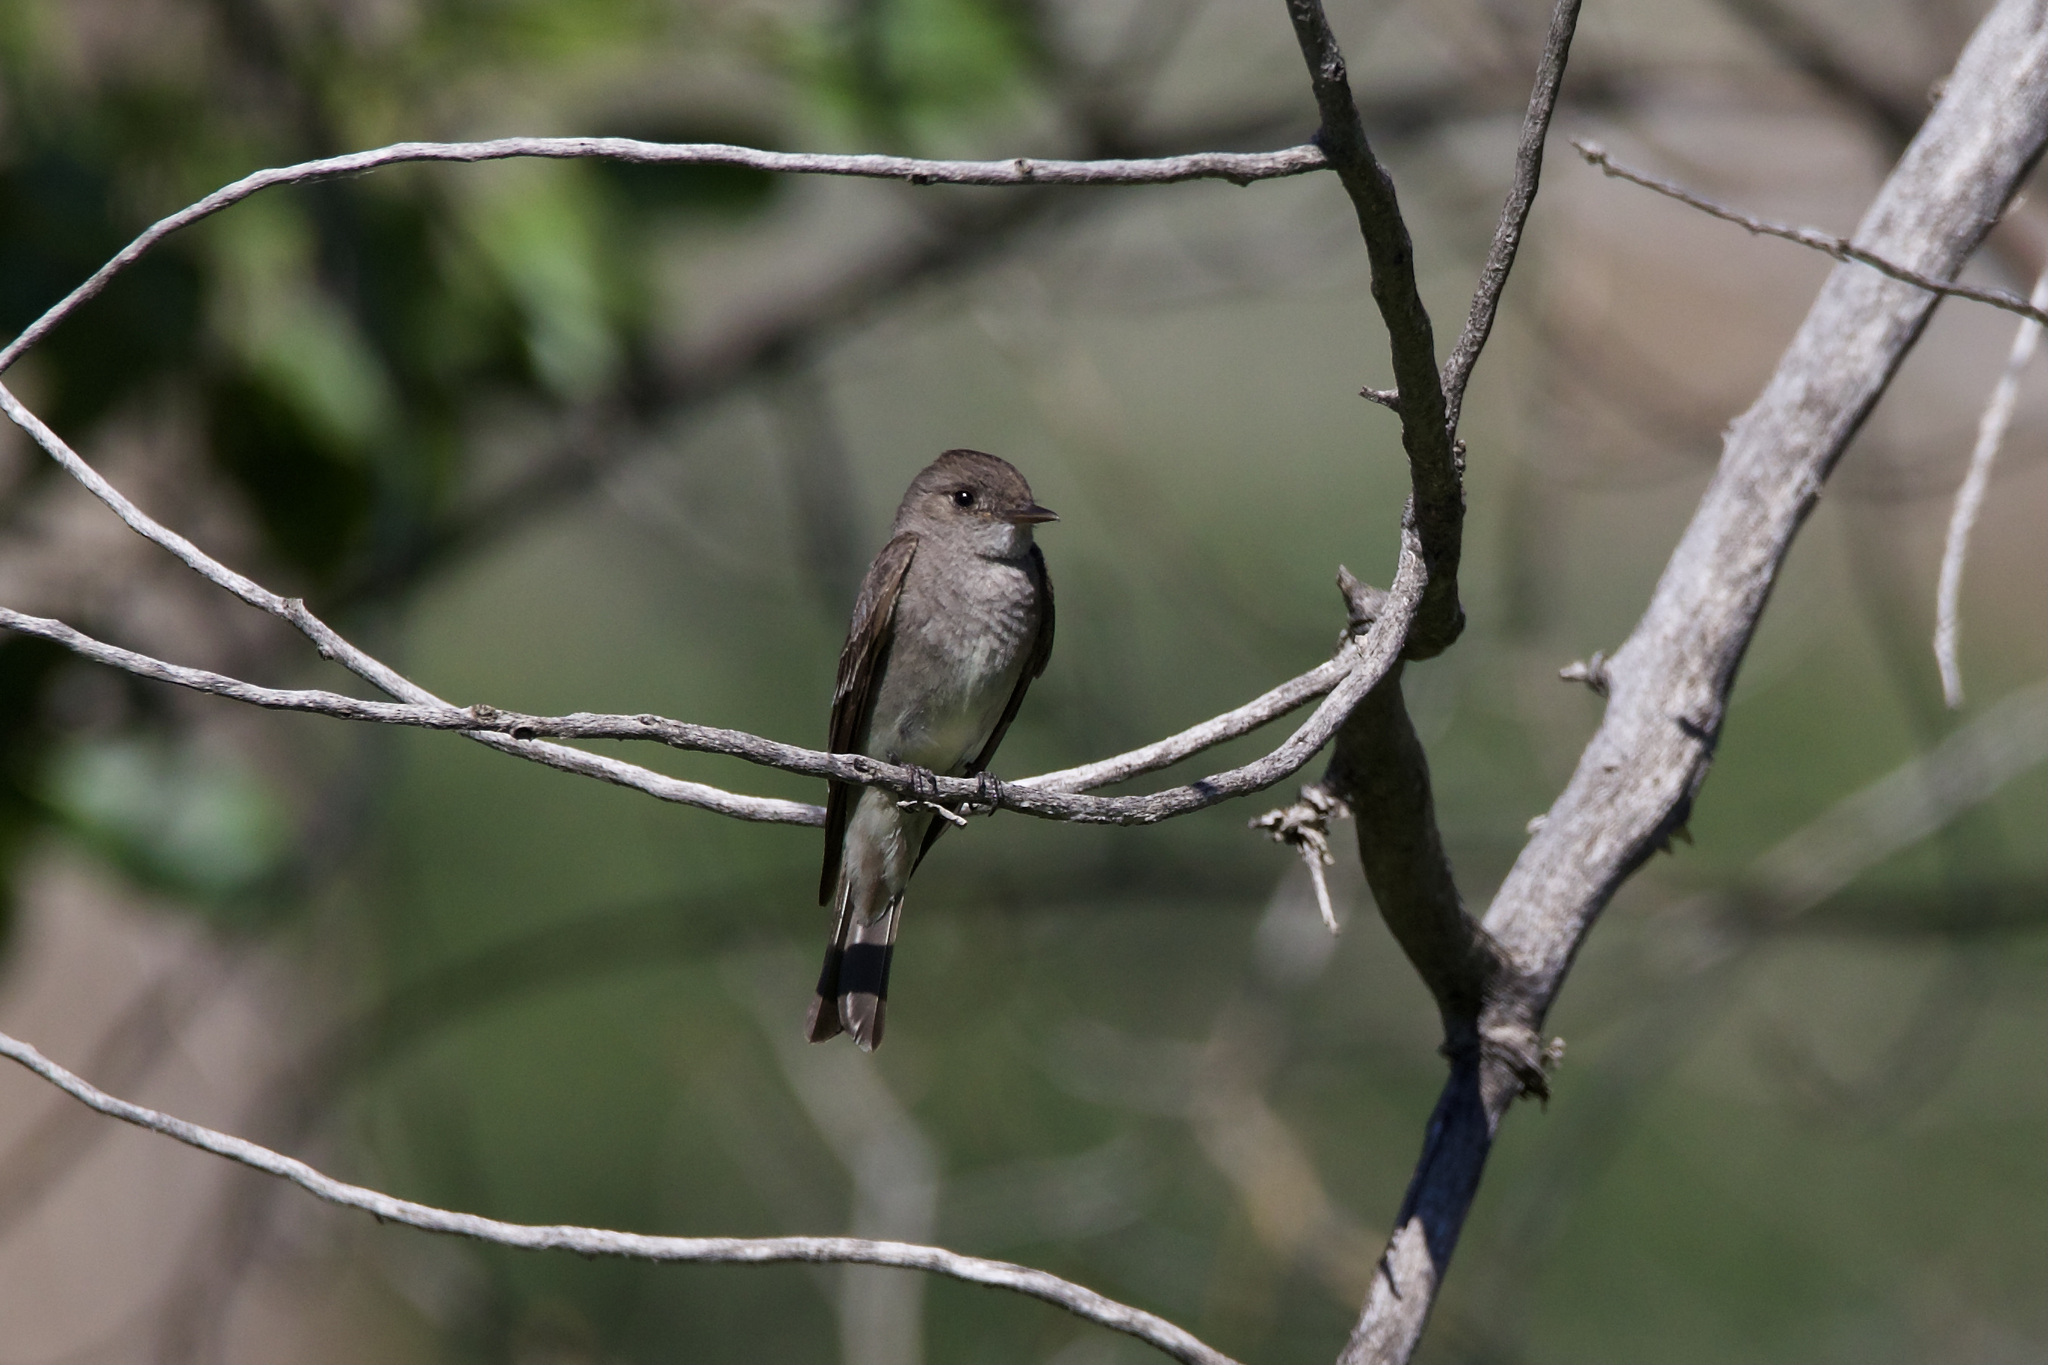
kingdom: Animalia
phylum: Chordata
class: Aves
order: Passeriformes
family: Tyrannidae
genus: Contopus
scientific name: Contopus sordidulus
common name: Western wood-pewee
